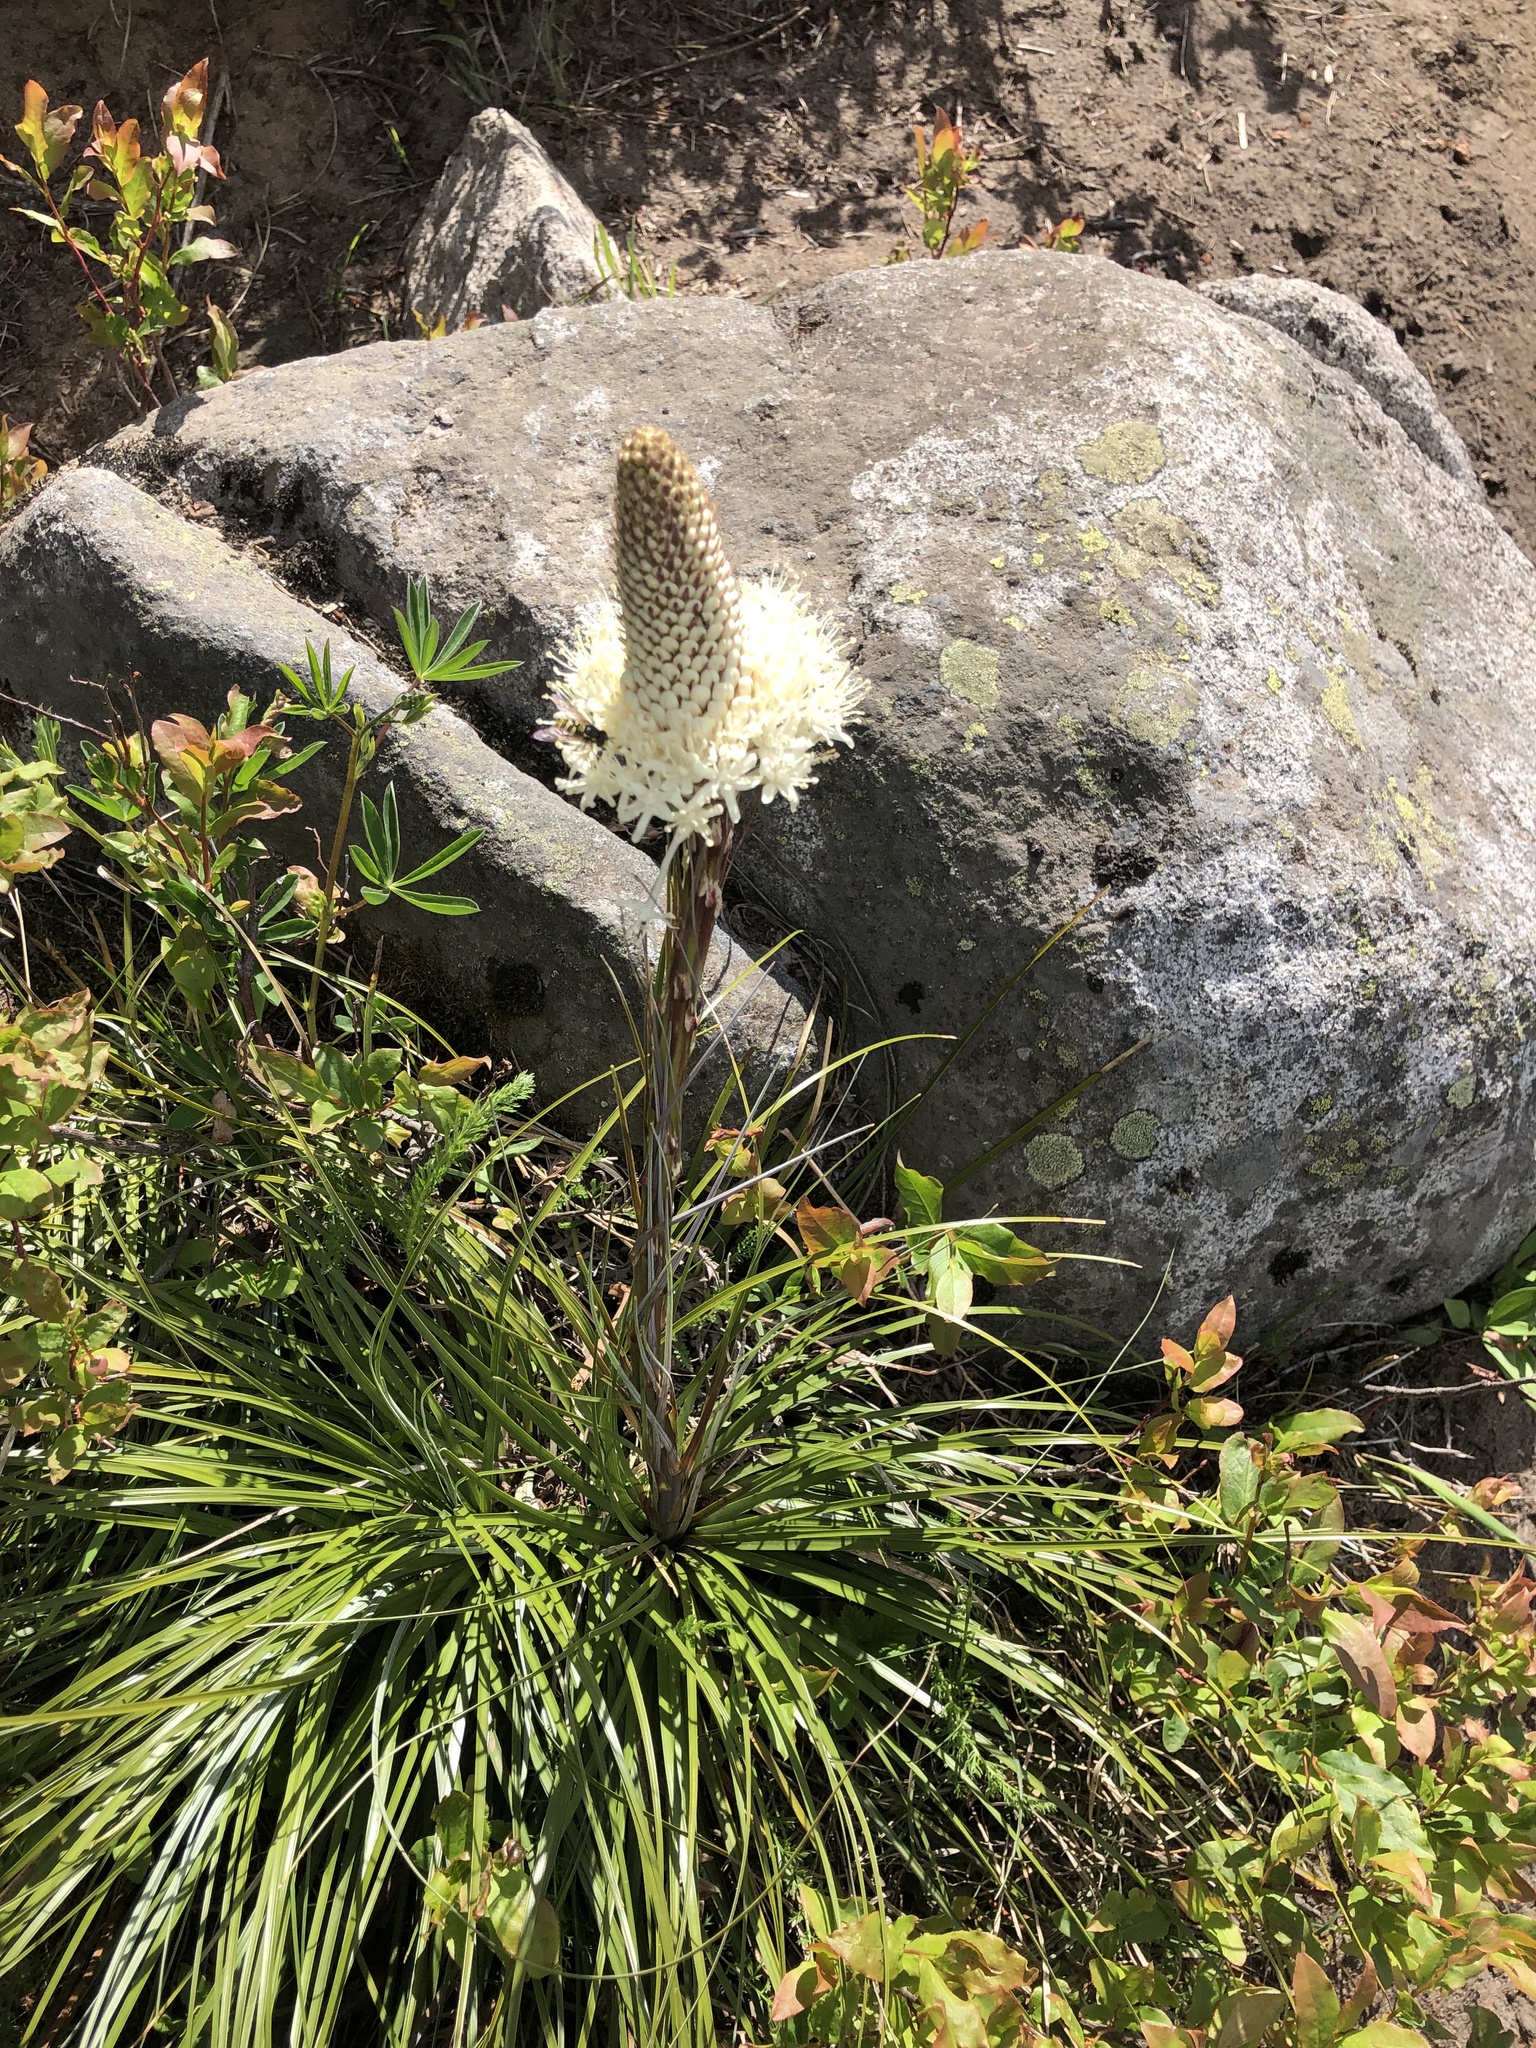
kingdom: Plantae
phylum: Tracheophyta
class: Liliopsida
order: Liliales
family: Melanthiaceae
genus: Xerophyllum
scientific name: Xerophyllum tenax
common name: Bear-grass
